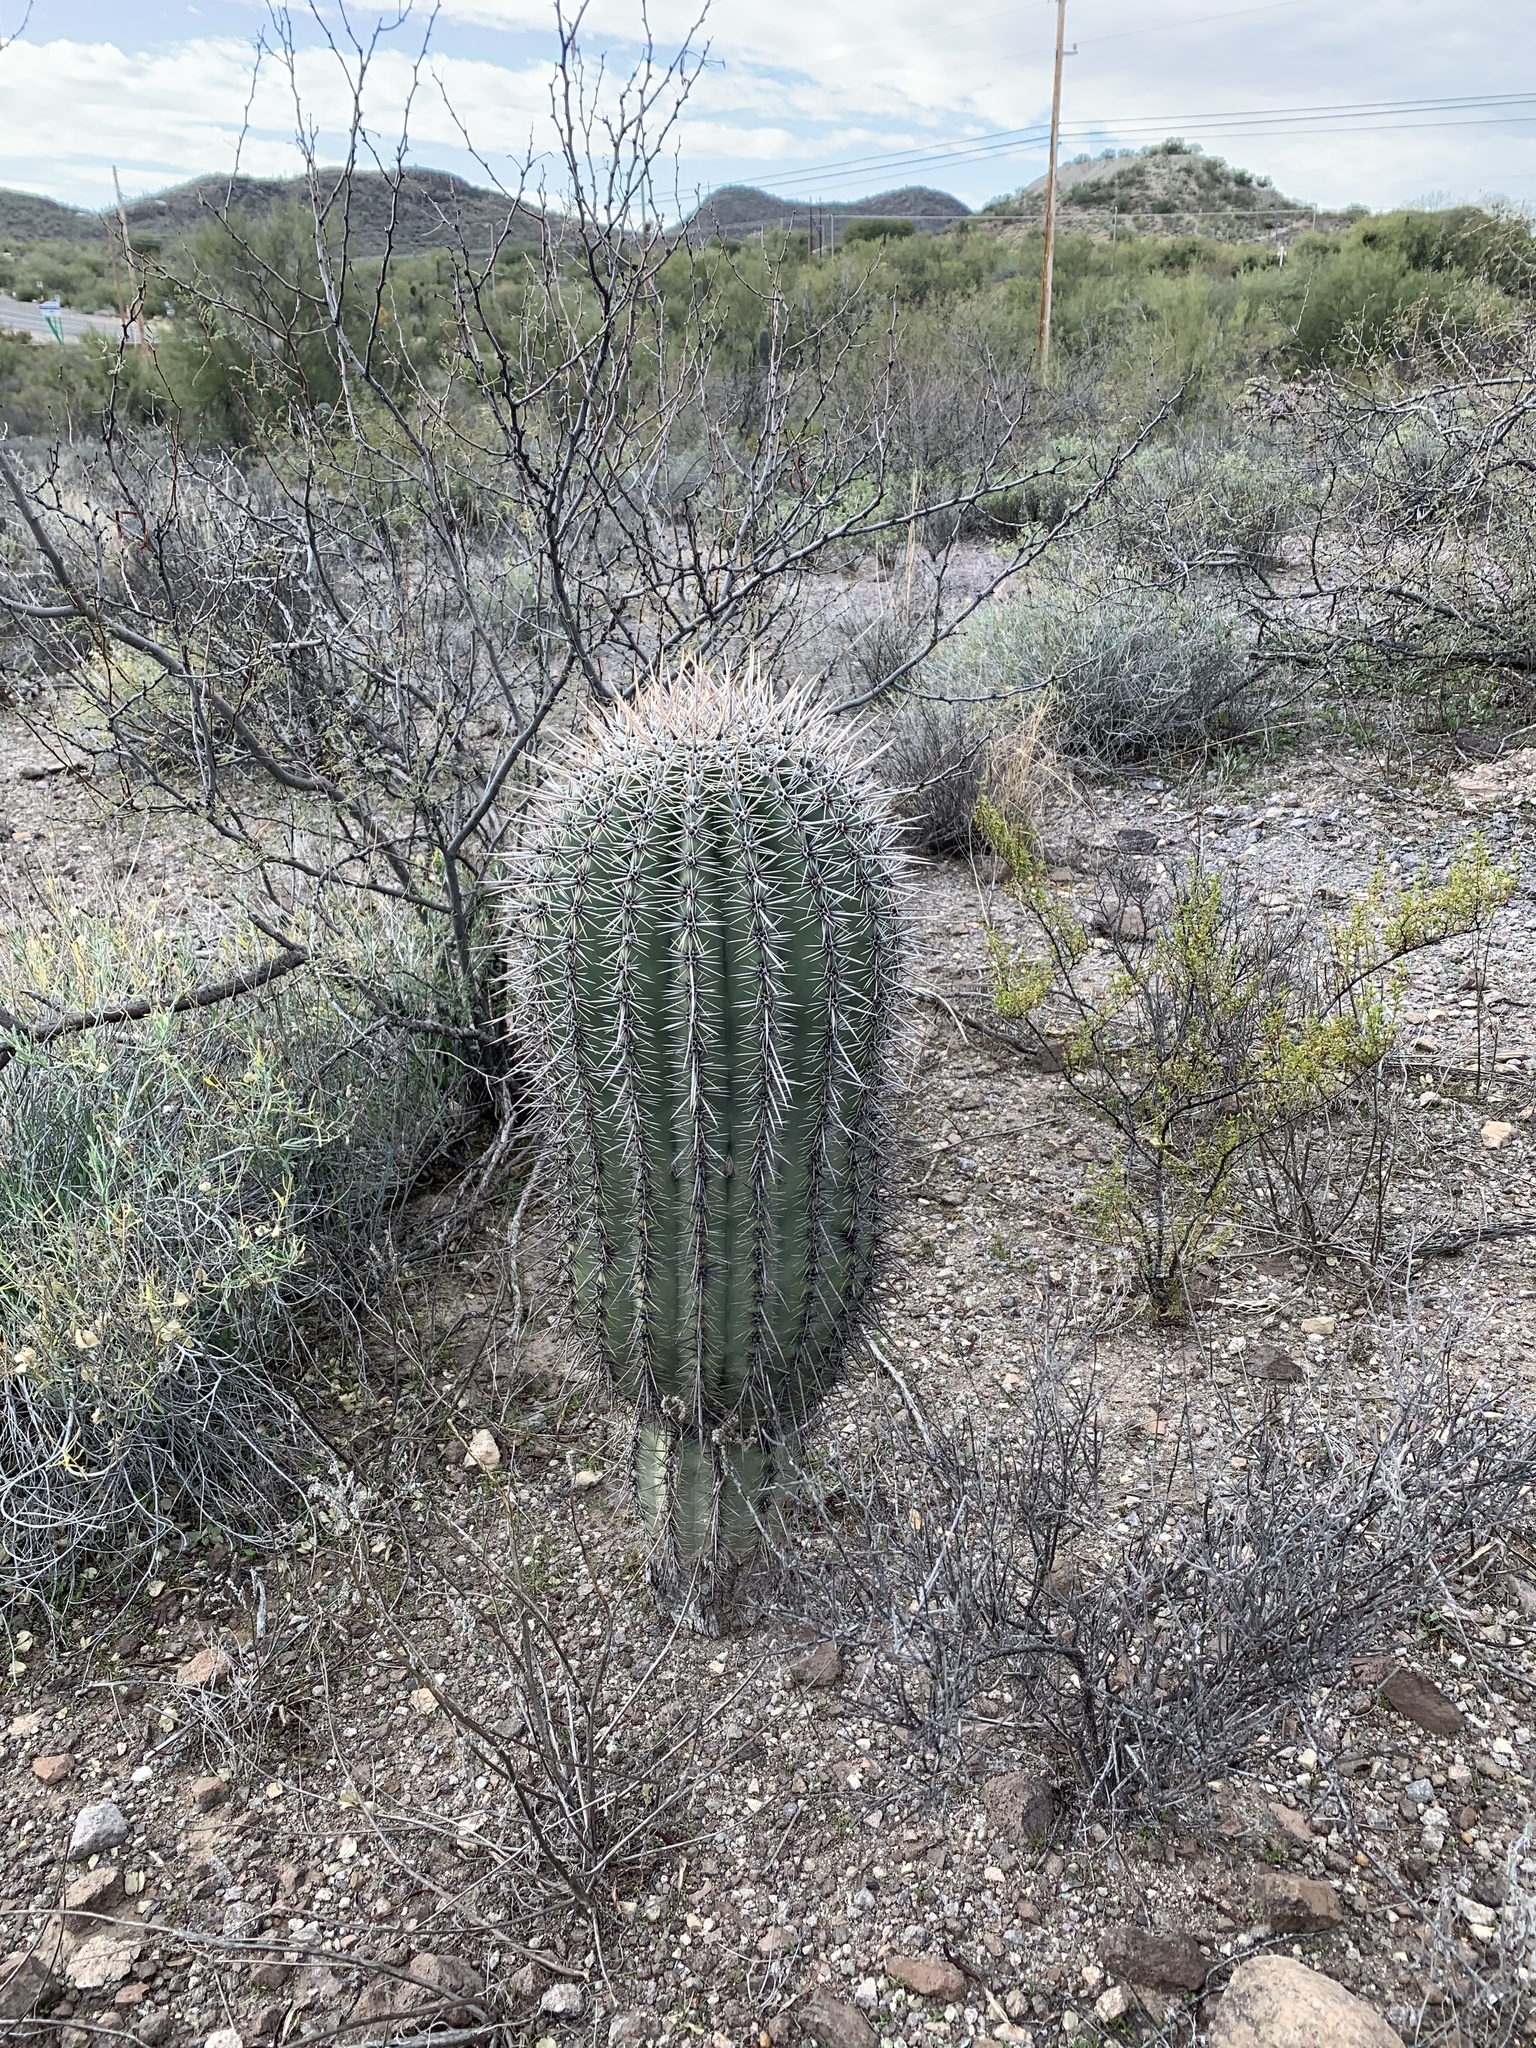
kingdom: Plantae
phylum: Tracheophyta
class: Magnoliopsida
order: Caryophyllales
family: Cactaceae
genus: Carnegiea
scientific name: Carnegiea gigantea
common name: Saguaro
